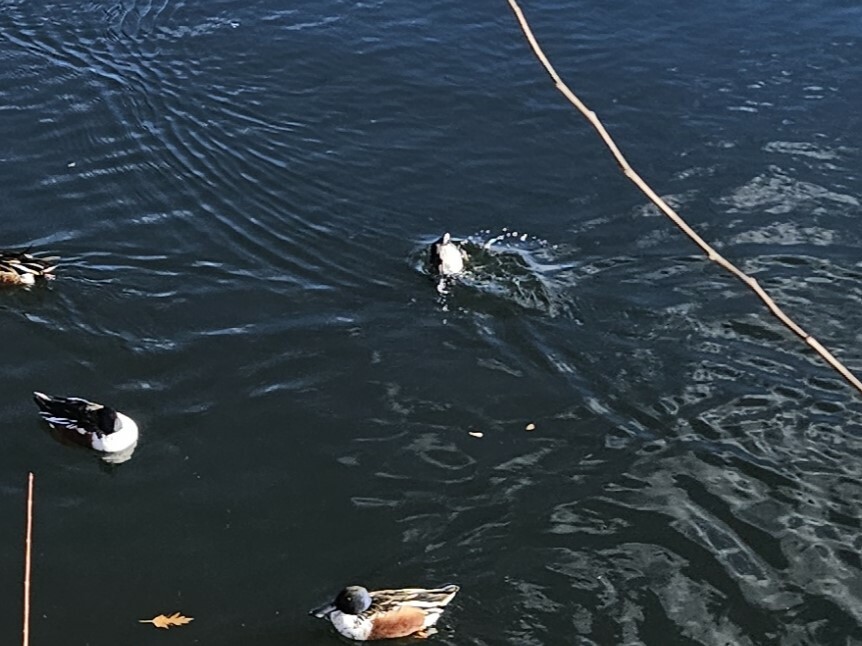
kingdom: Animalia
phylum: Chordata
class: Aves
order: Gruiformes
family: Rallidae
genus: Fulica
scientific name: Fulica americana
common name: American coot
